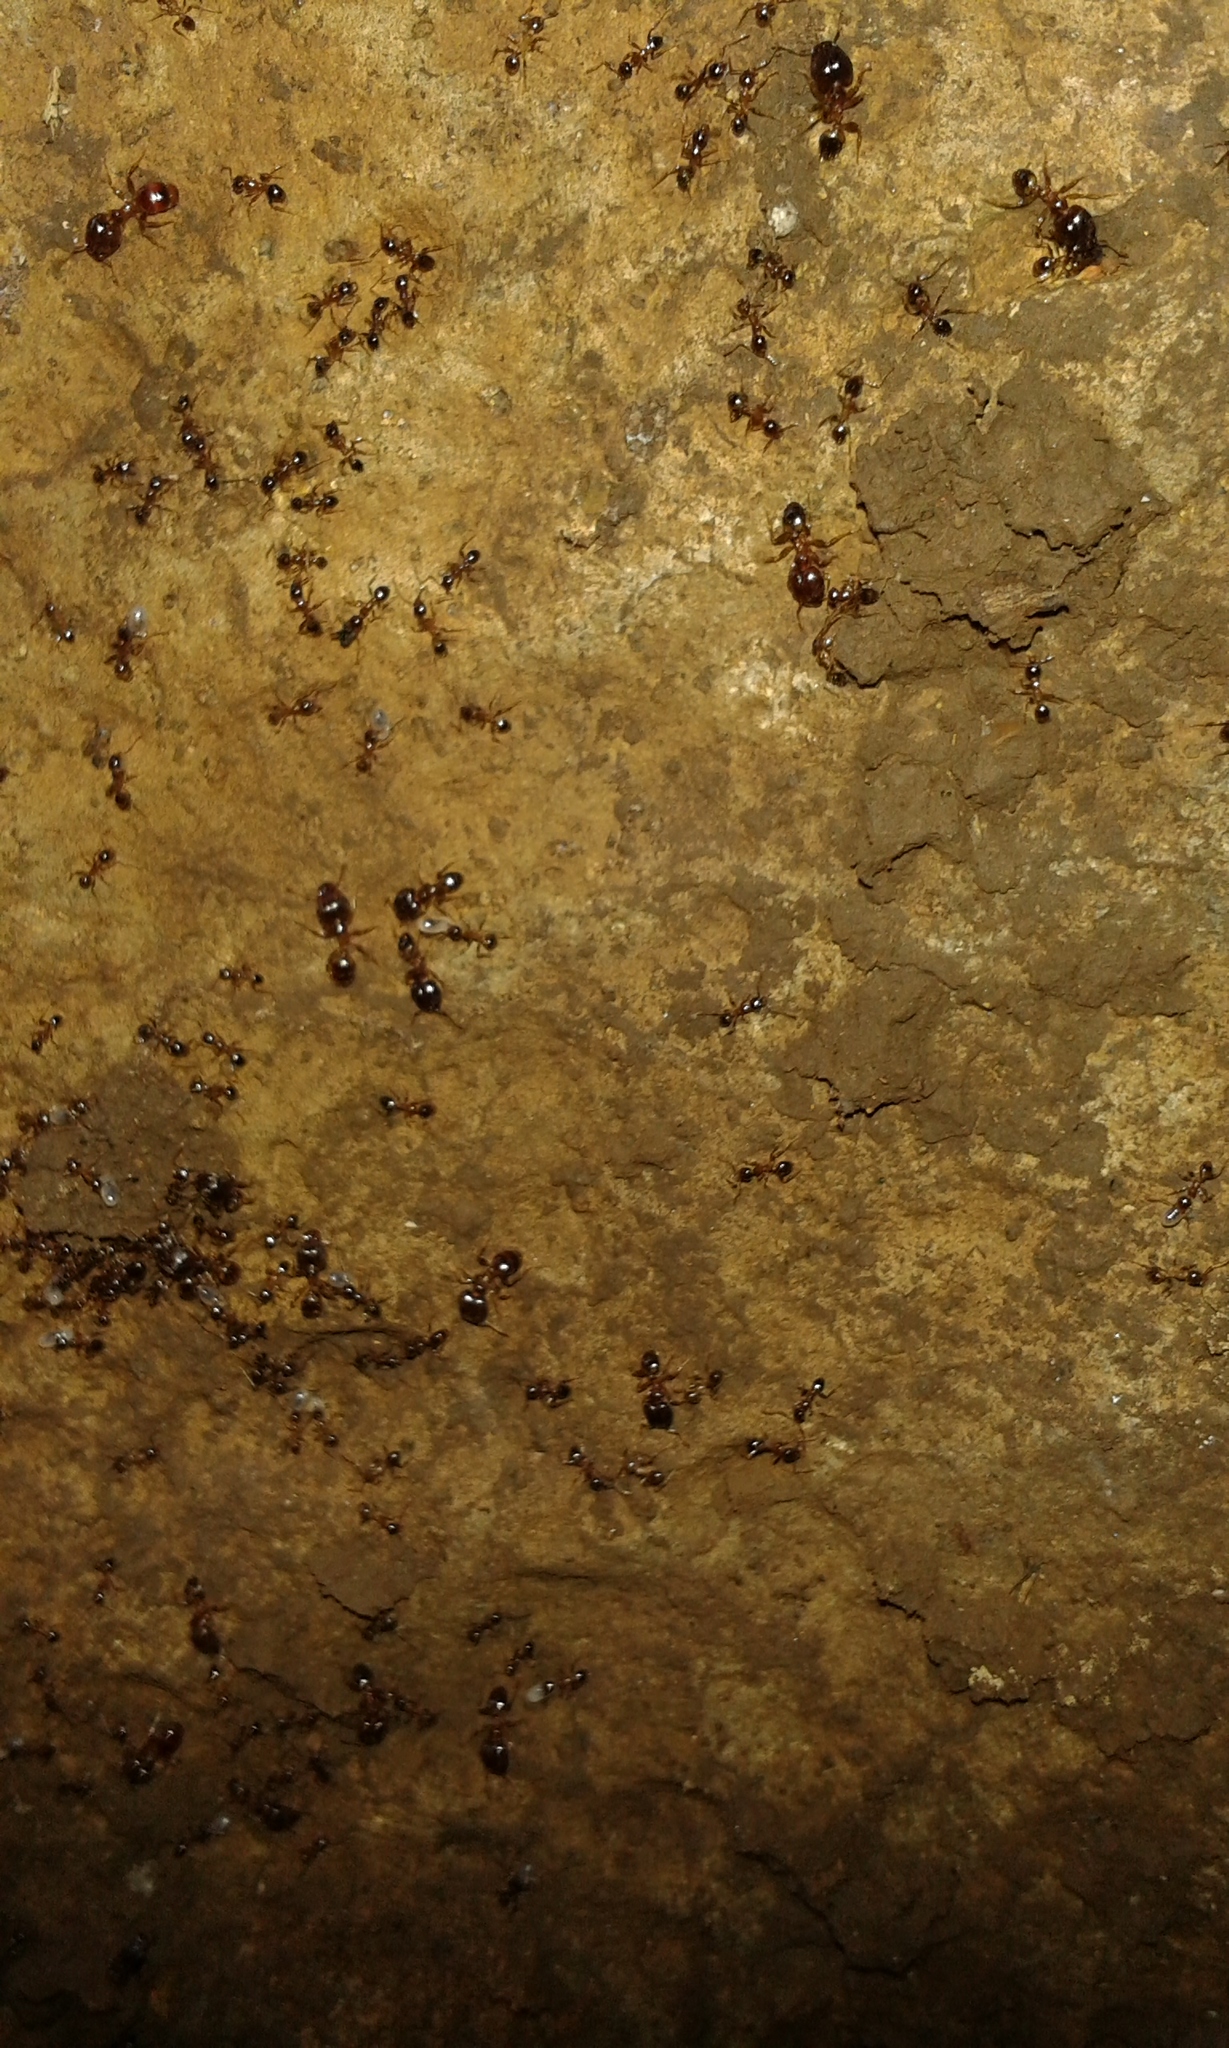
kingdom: Animalia
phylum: Arthropoda
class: Insecta
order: Hymenoptera
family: Formicidae
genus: Pheidole
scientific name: Pheidole megacephala
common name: Bigheaded ant
